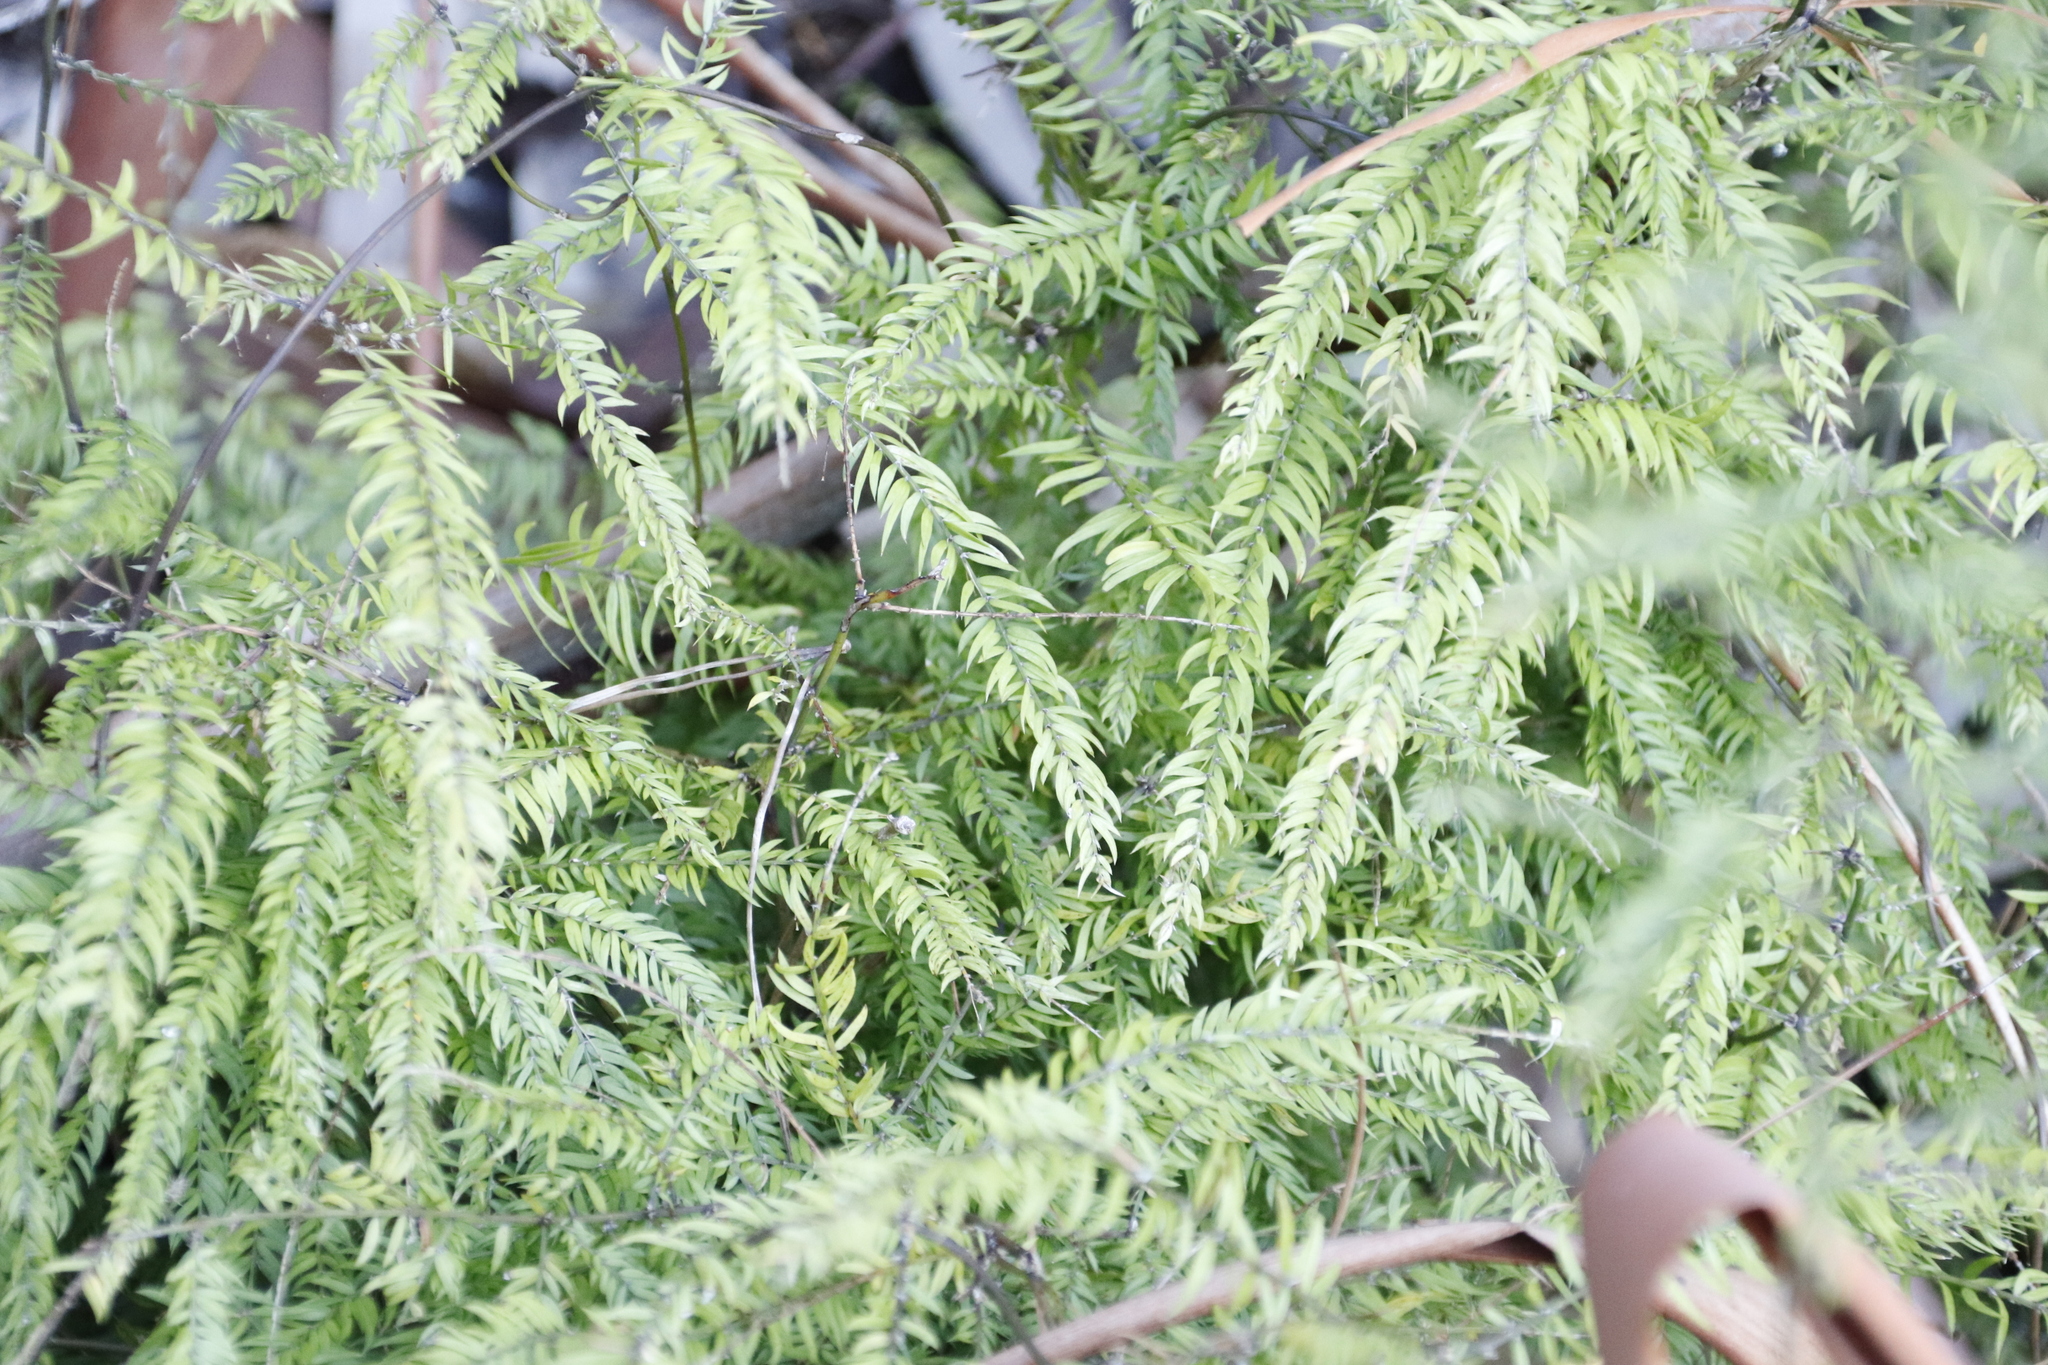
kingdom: Plantae
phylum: Tracheophyta
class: Liliopsida
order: Asparagales
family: Asparagaceae
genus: Asparagus
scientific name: Asparagus scandens
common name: Asparagus-fern
